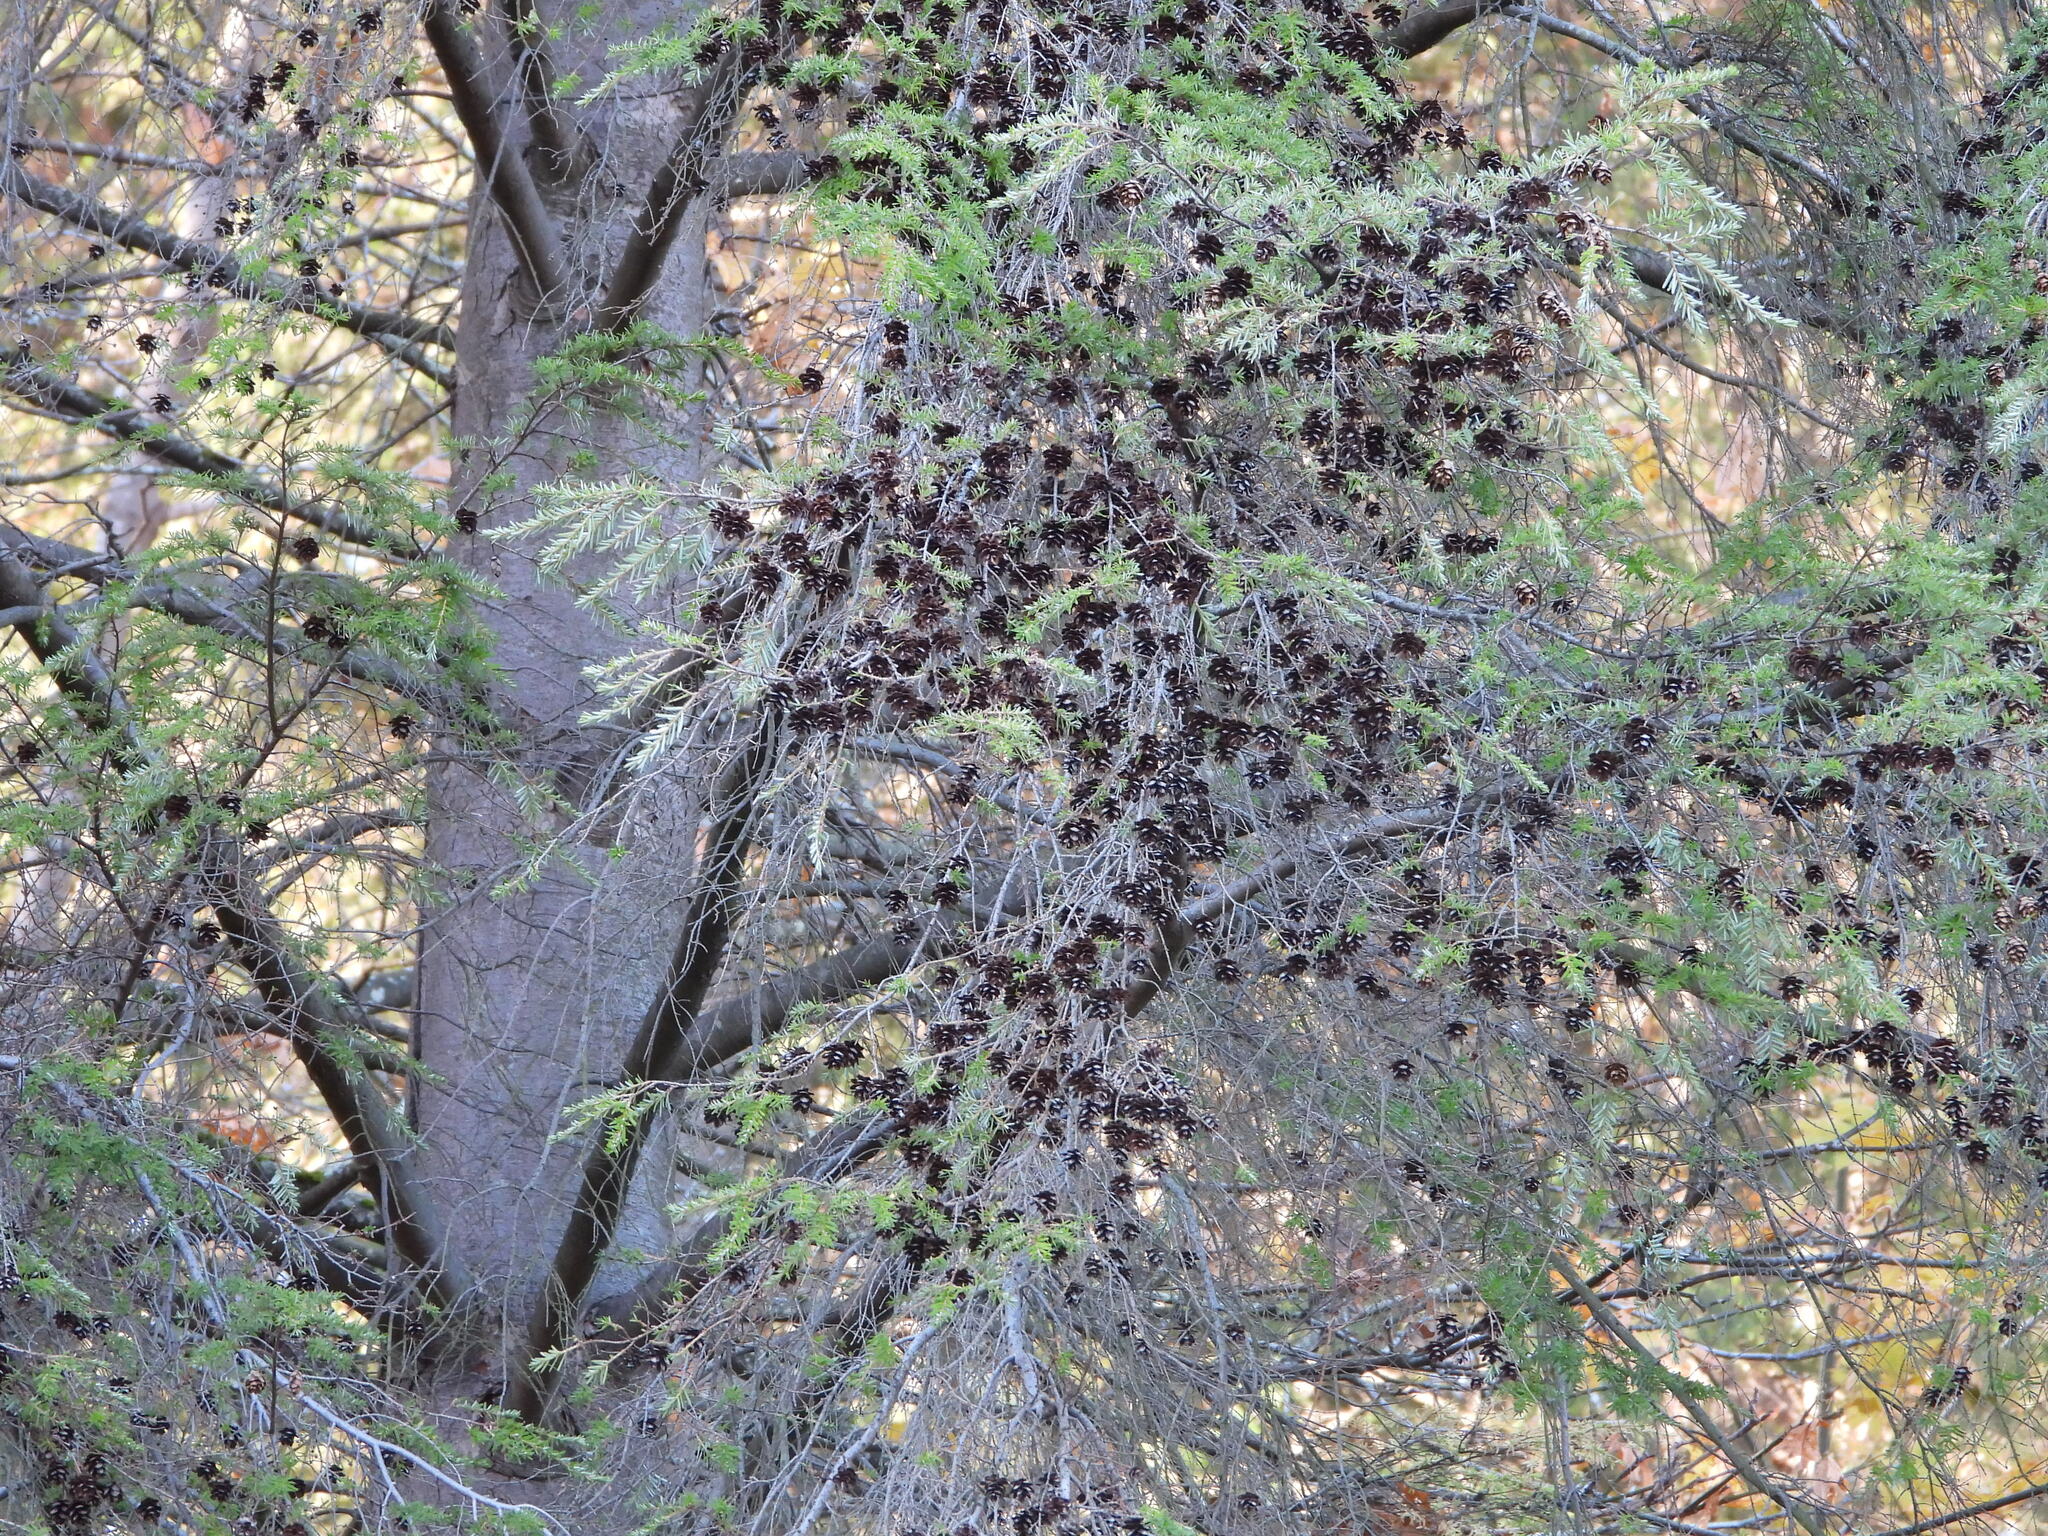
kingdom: Plantae
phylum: Tracheophyta
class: Pinopsida
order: Pinales
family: Pinaceae
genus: Tsuga
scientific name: Tsuga heterophylla
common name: Western hemlock
